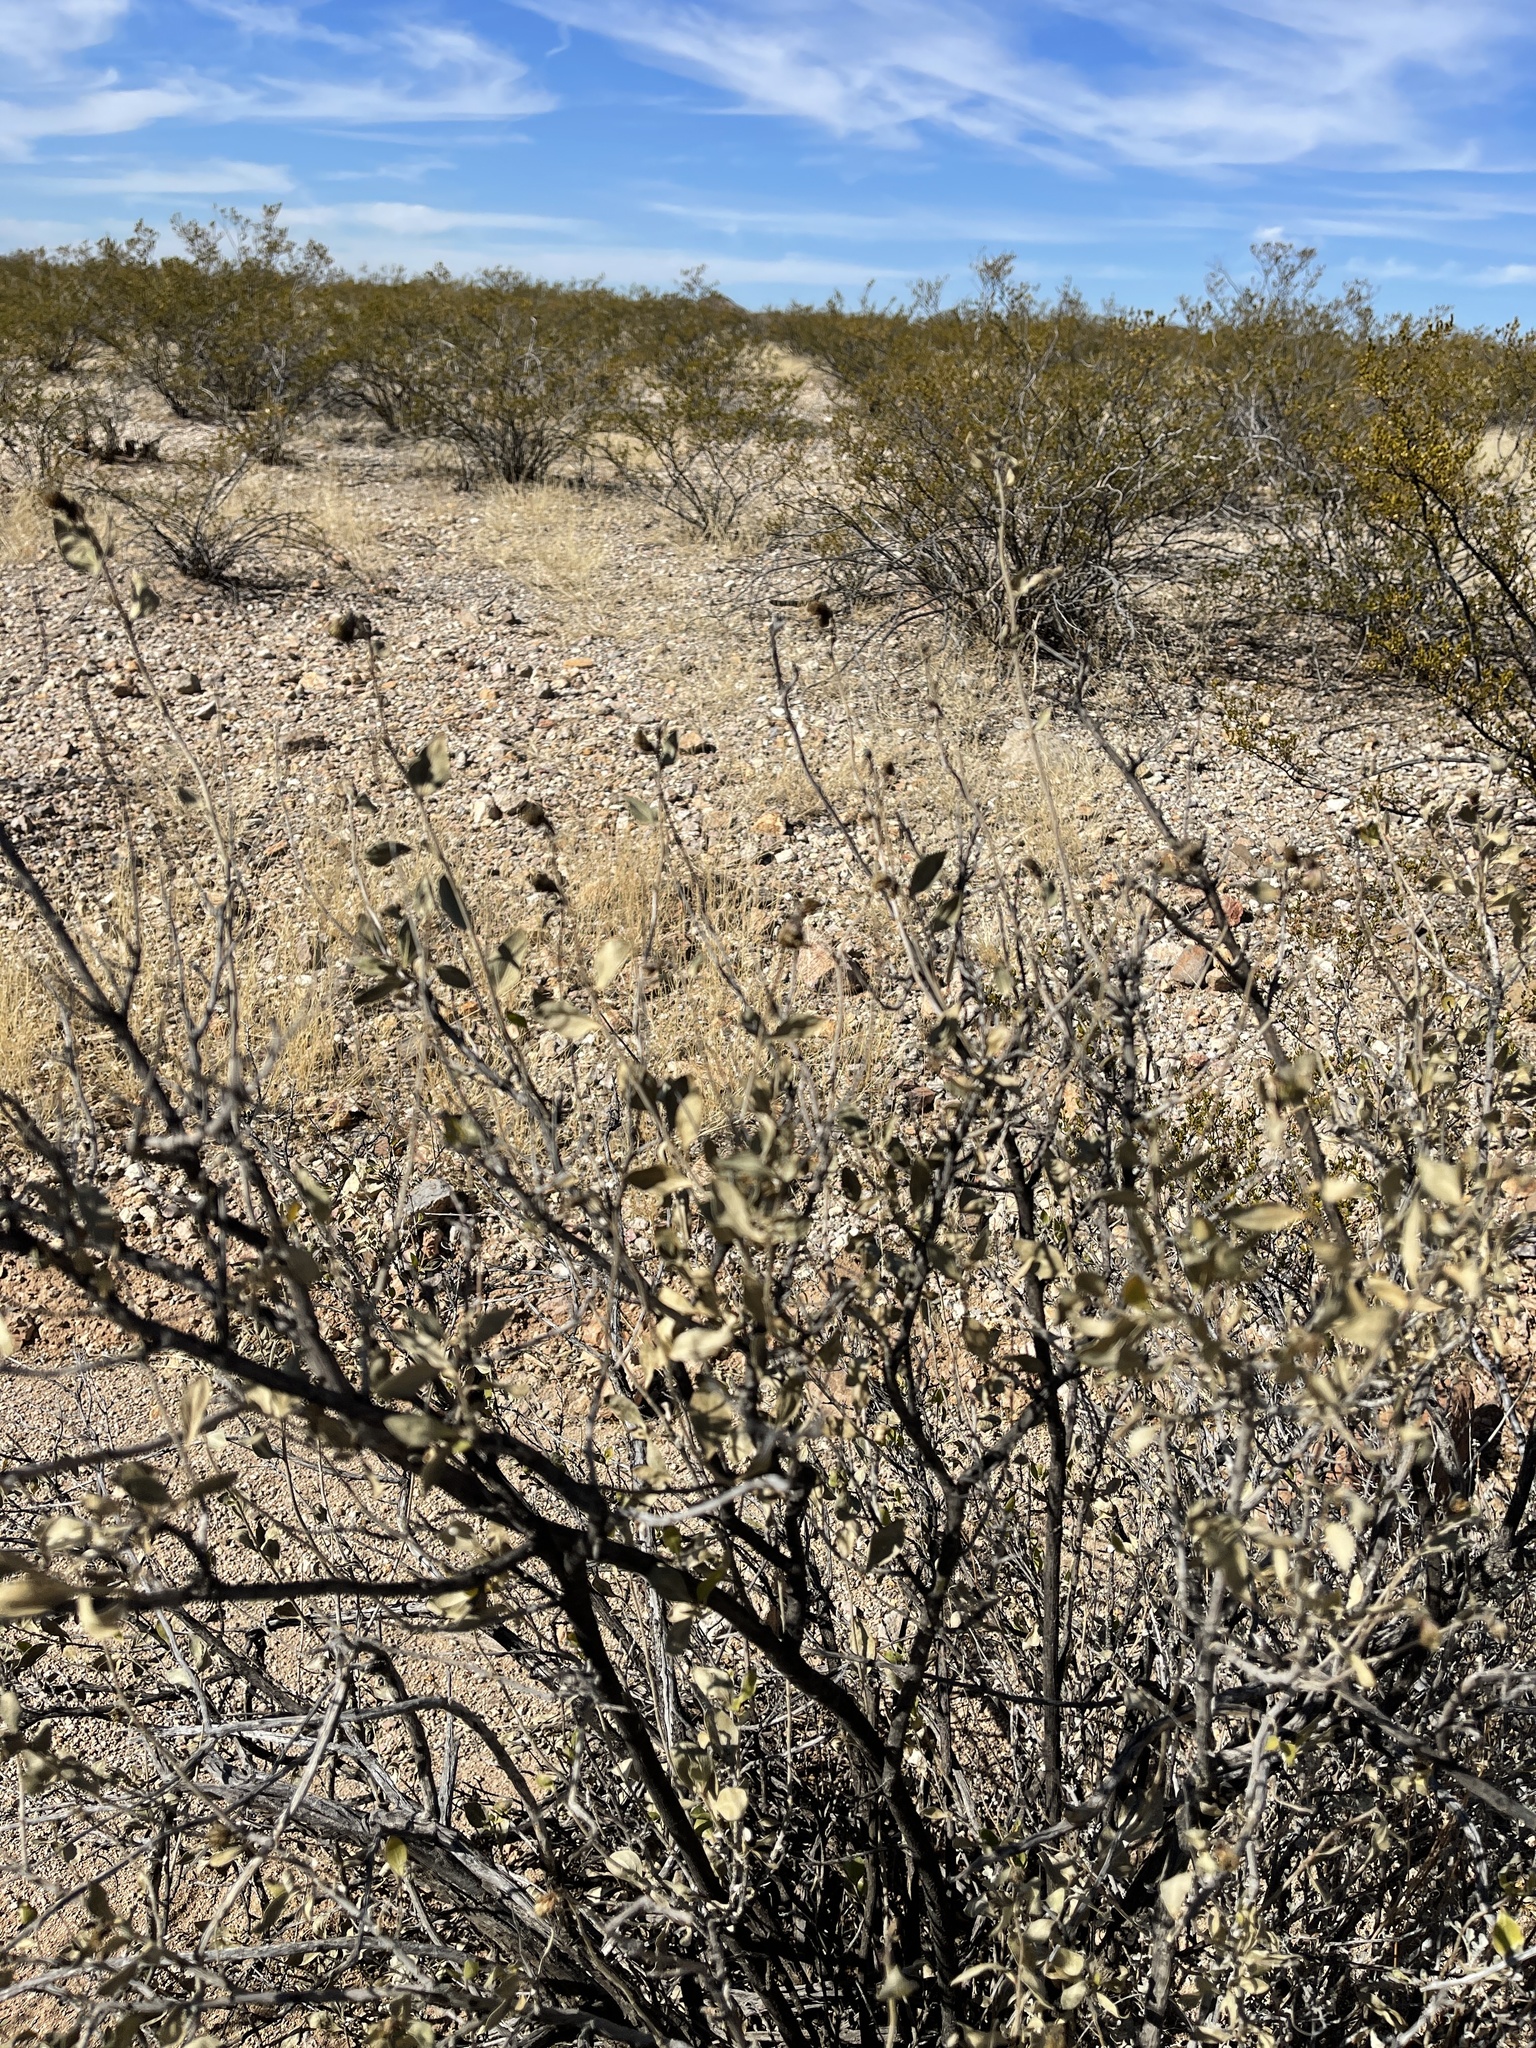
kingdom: Plantae
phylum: Tracheophyta
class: Magnoliopsida
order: Asterales
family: Asteraceae
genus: Flourensia
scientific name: Flourensia cernua
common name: Varnishbush
